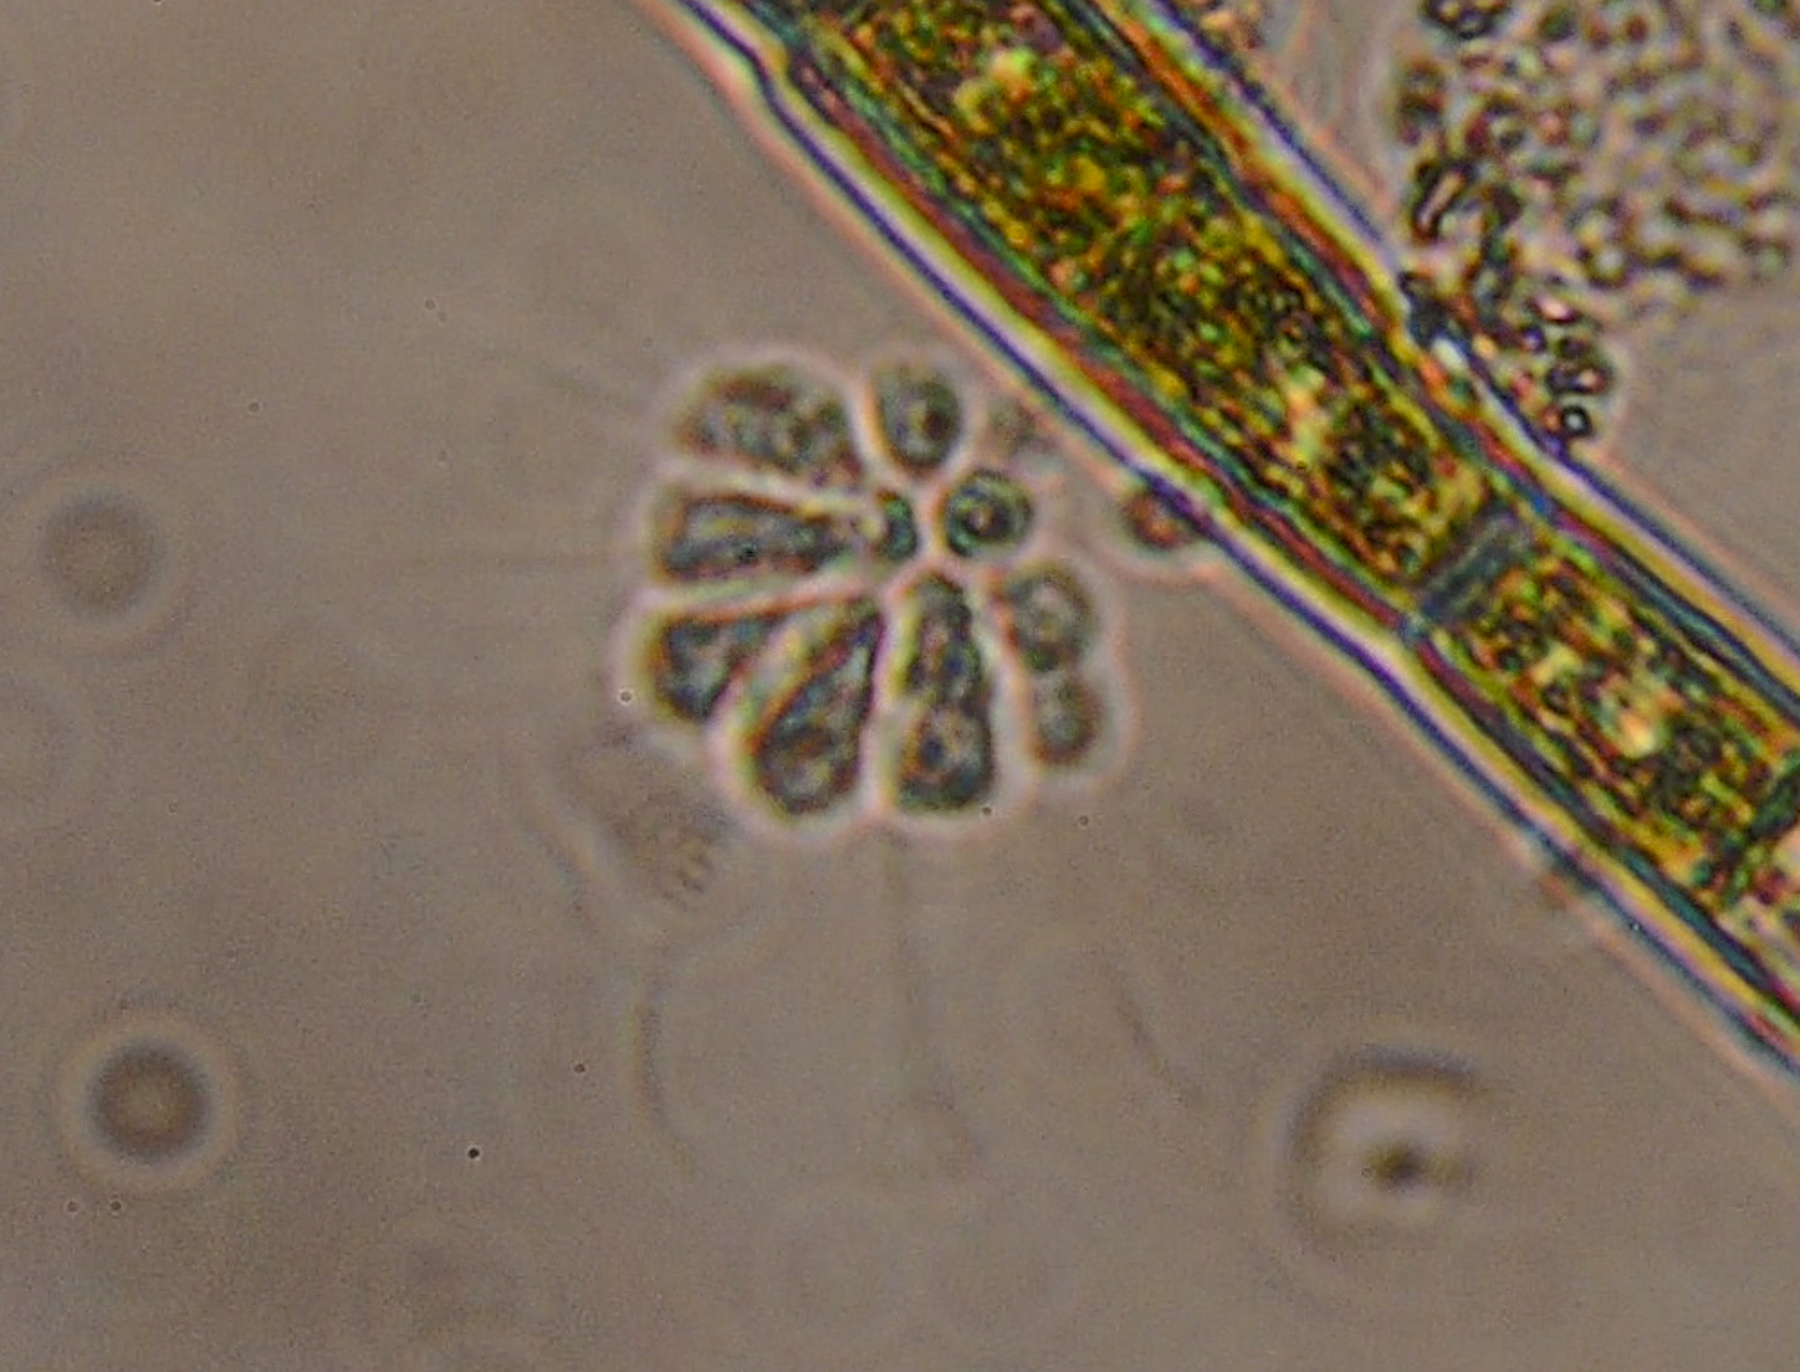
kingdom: Chromista
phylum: Ochrophyta
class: Chrysophyceae
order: Chromulinales
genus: Anthophysa
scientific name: Anthophysa vegetans
